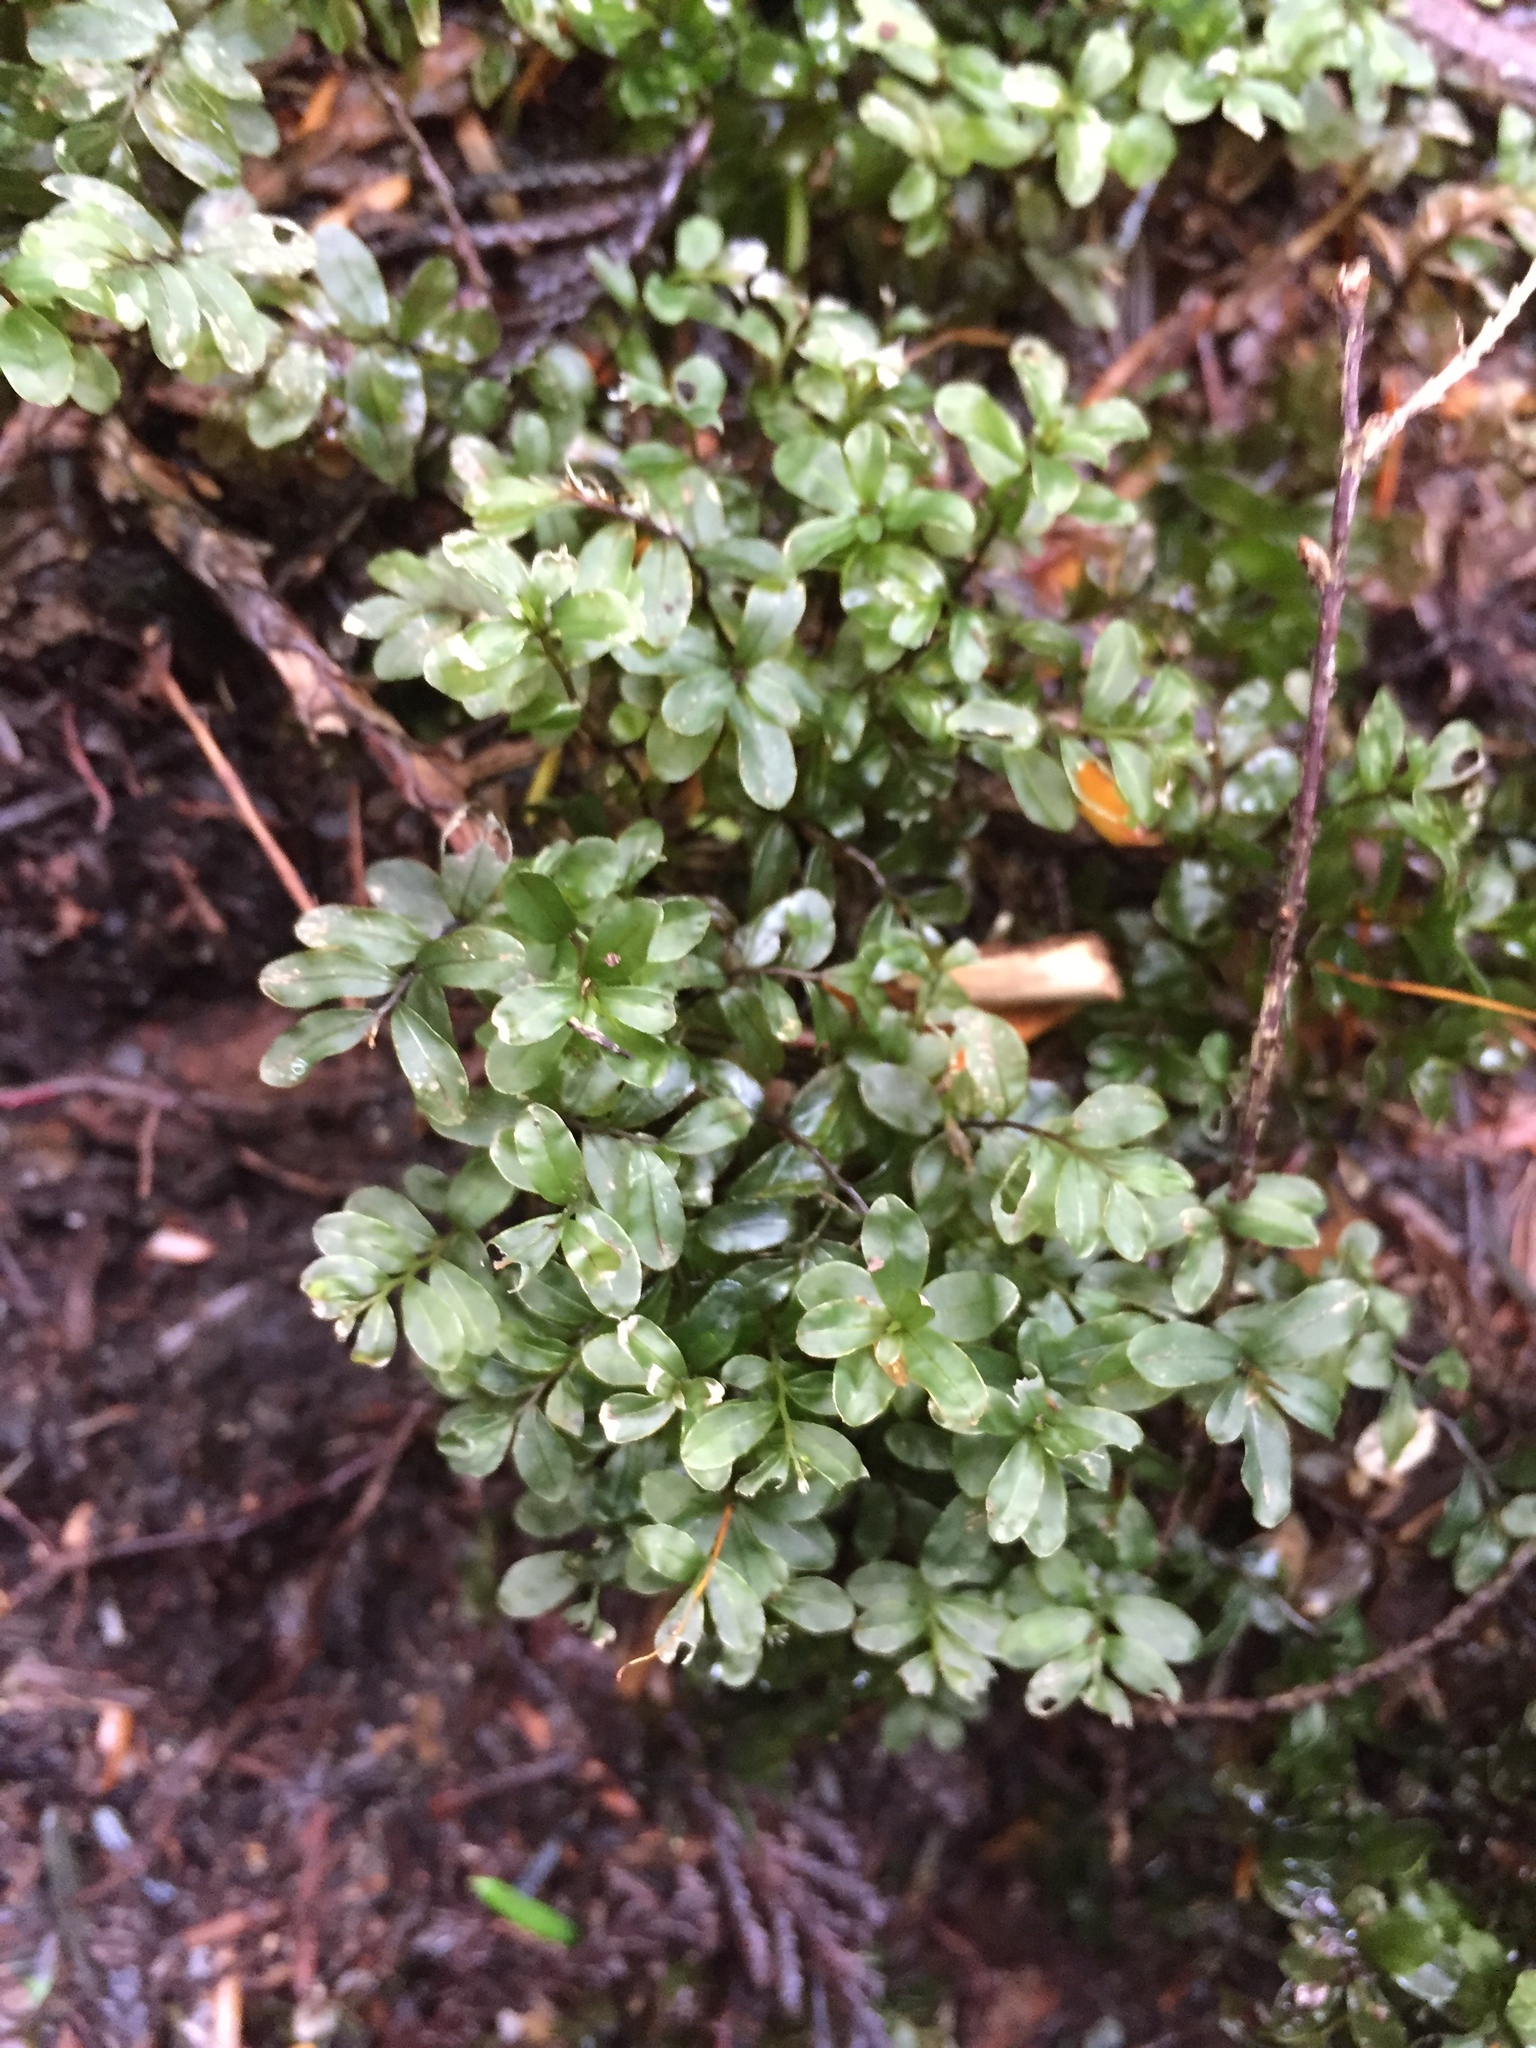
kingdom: Plantae
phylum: Bryophyta
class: Bryopsida
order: Bryales
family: Mniaceae
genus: Rhizomnium
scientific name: Rhizomnium glabrescens
